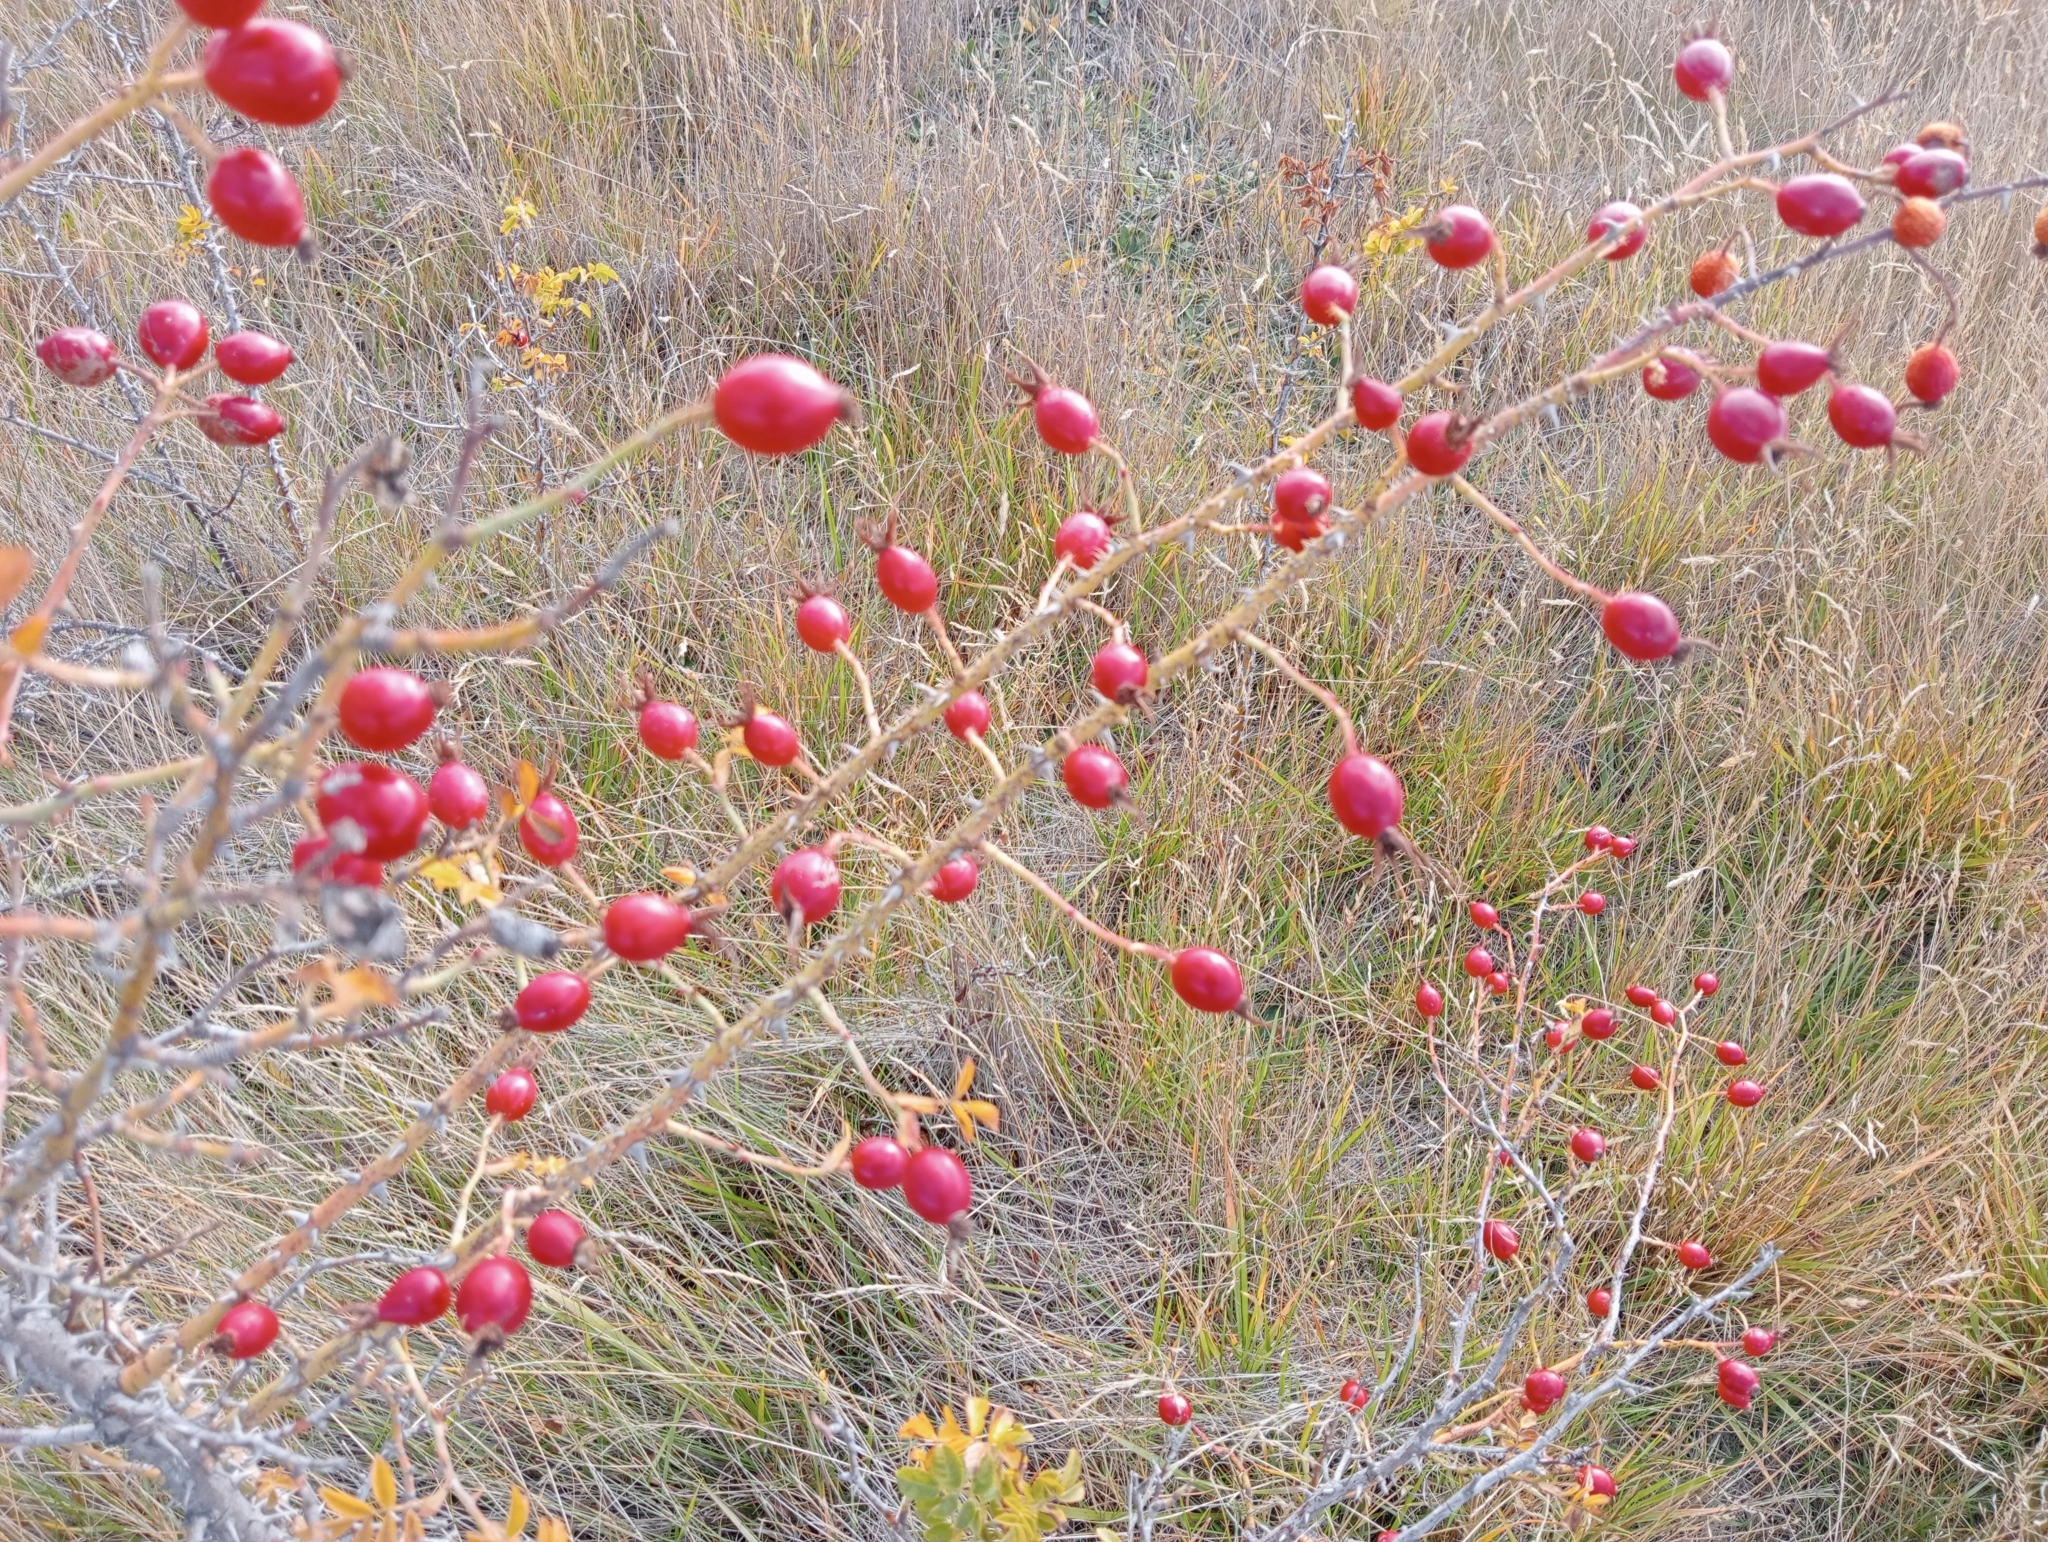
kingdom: Plantae
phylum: Tracheophyta
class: Magnoliopsida
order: Rosales
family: Rosaceae
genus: Rosa
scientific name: Rosa rubiginosa
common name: Sweet-briar
